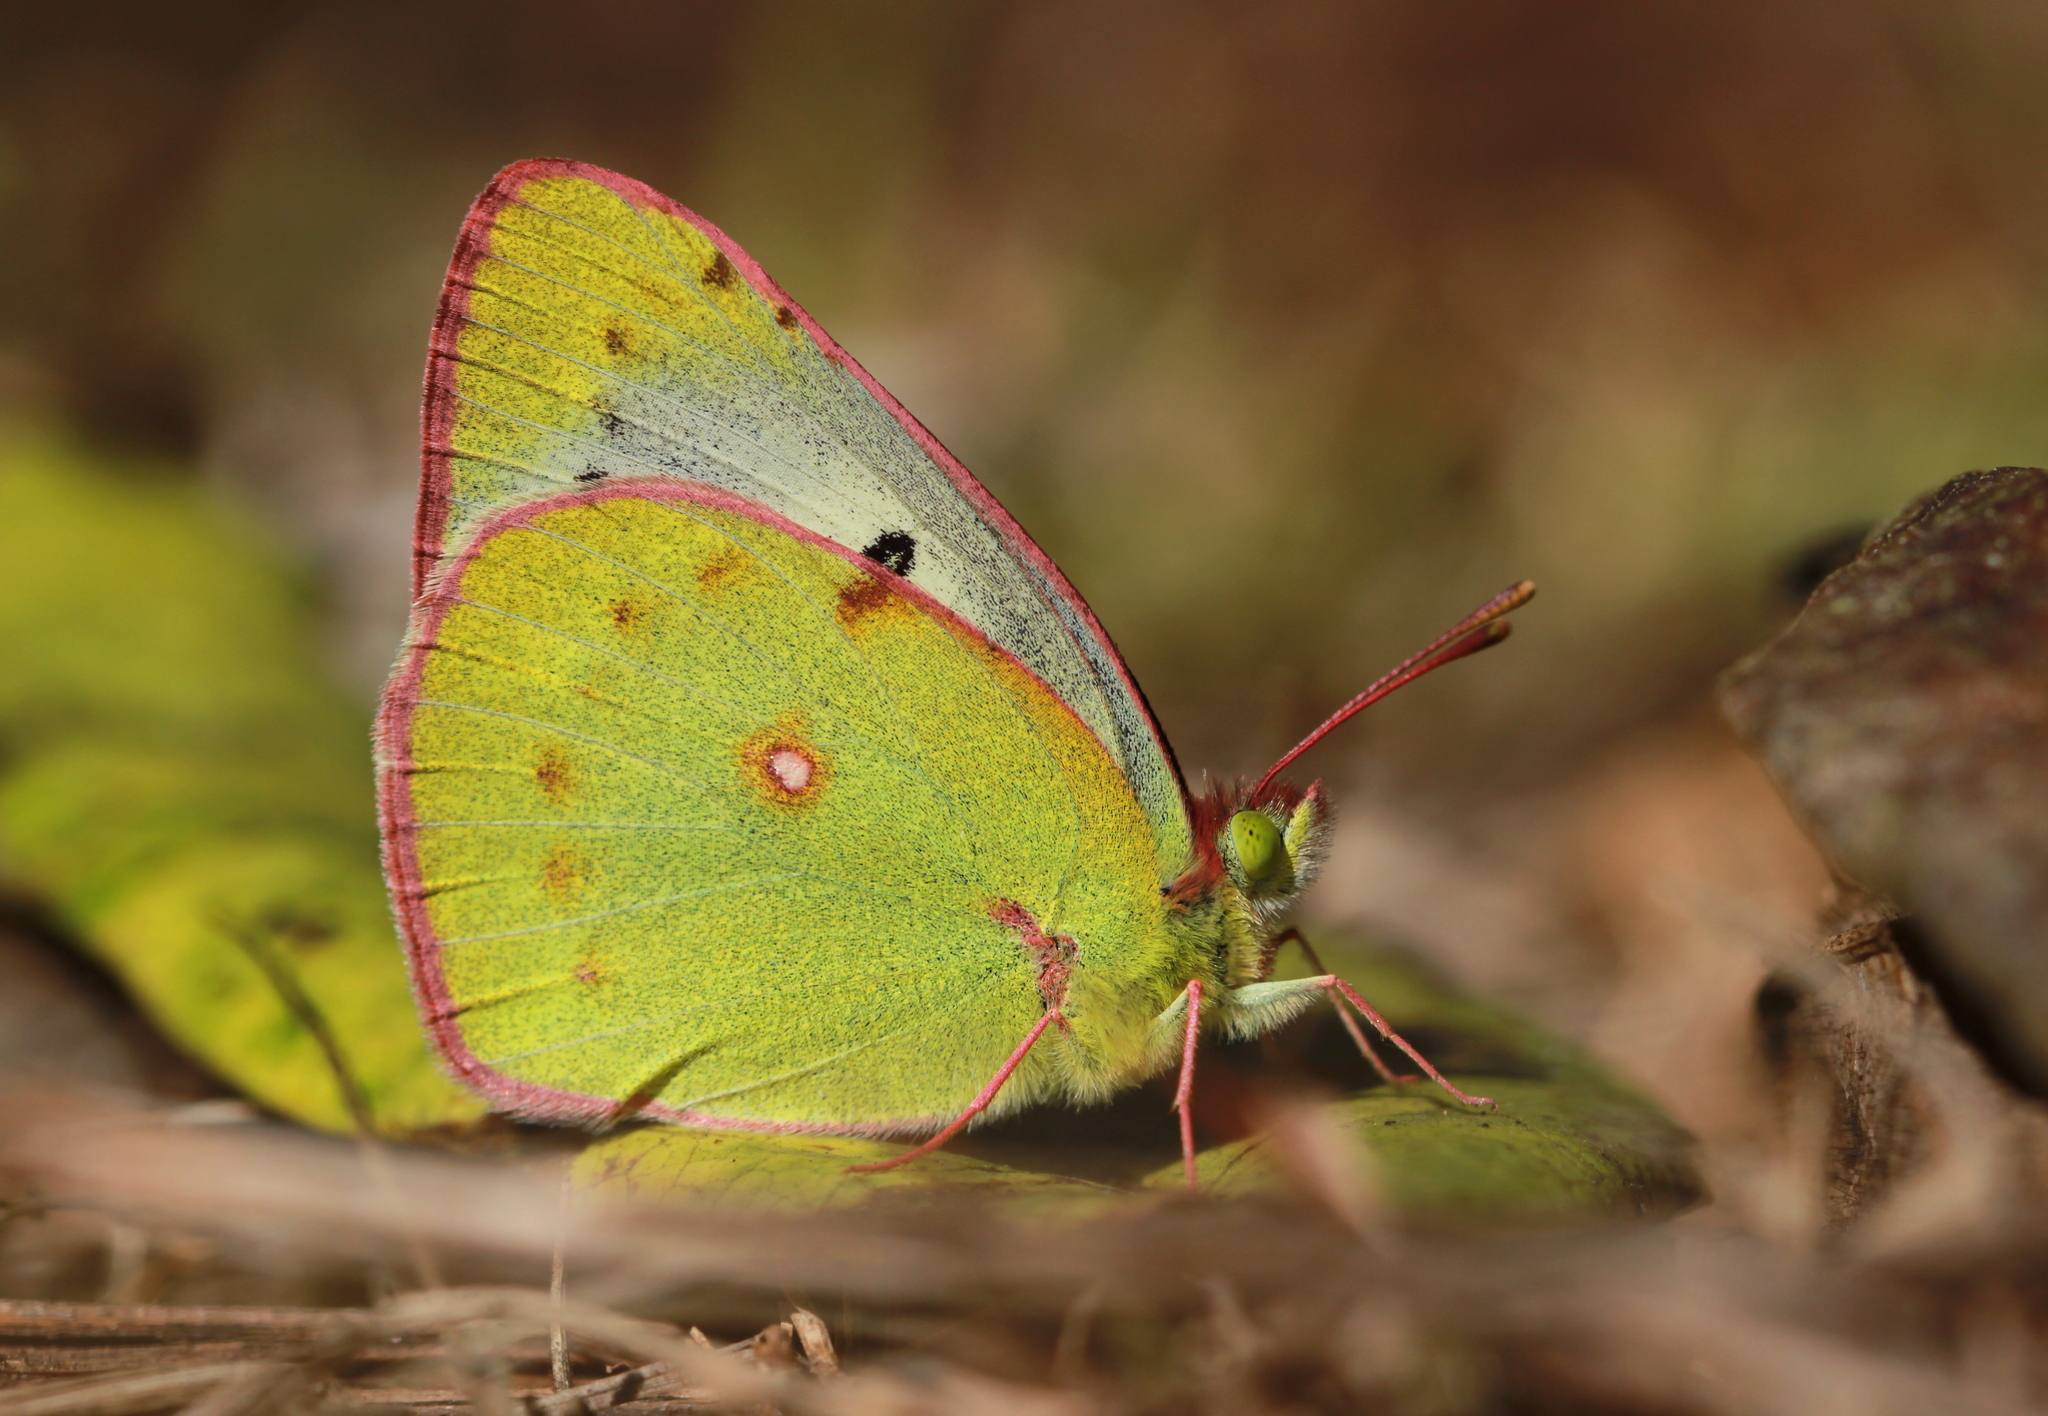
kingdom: Animalia
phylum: Arthropoda
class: Insecta
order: Lepidoptera
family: Pieridae
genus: Colias
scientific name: Colias nilagiriensis
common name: Nilgiri clouded yellow
